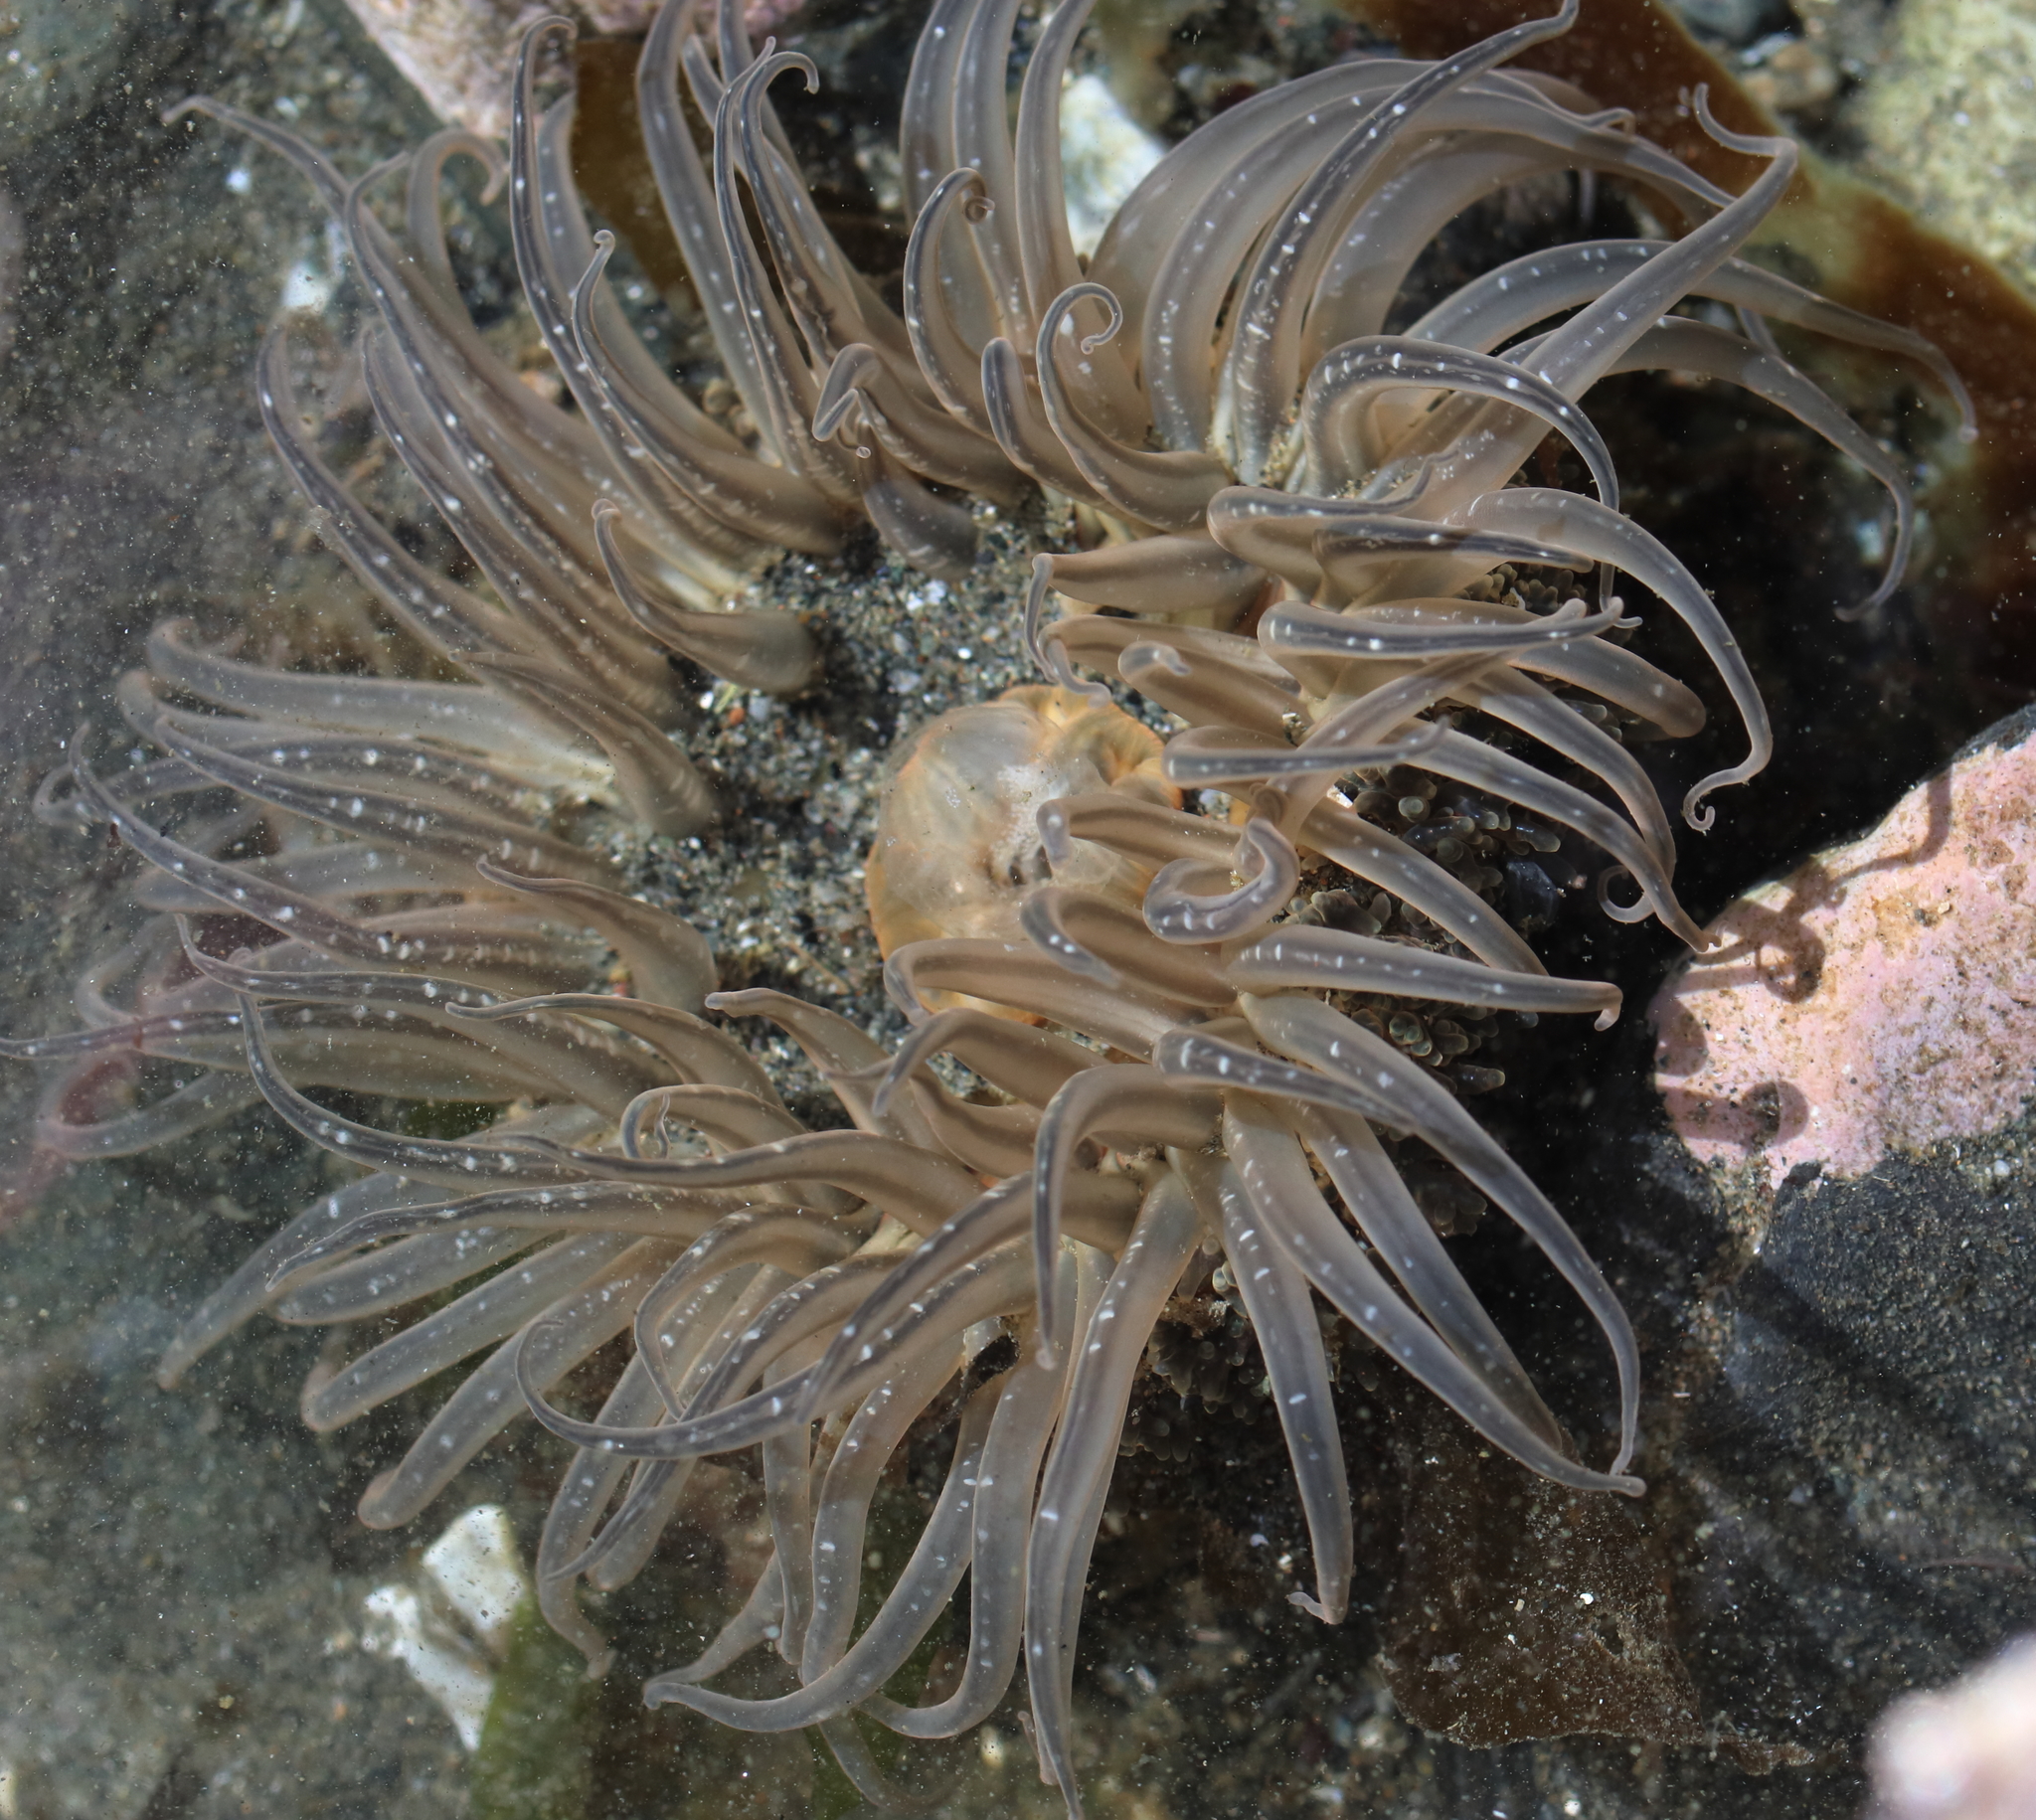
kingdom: Animalia
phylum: Cnidaria
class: Anthozoa
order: Actiniaria
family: Actiniidae
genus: Anthopleura
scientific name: Anthopleura artemisia
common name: Buried sea anemone
